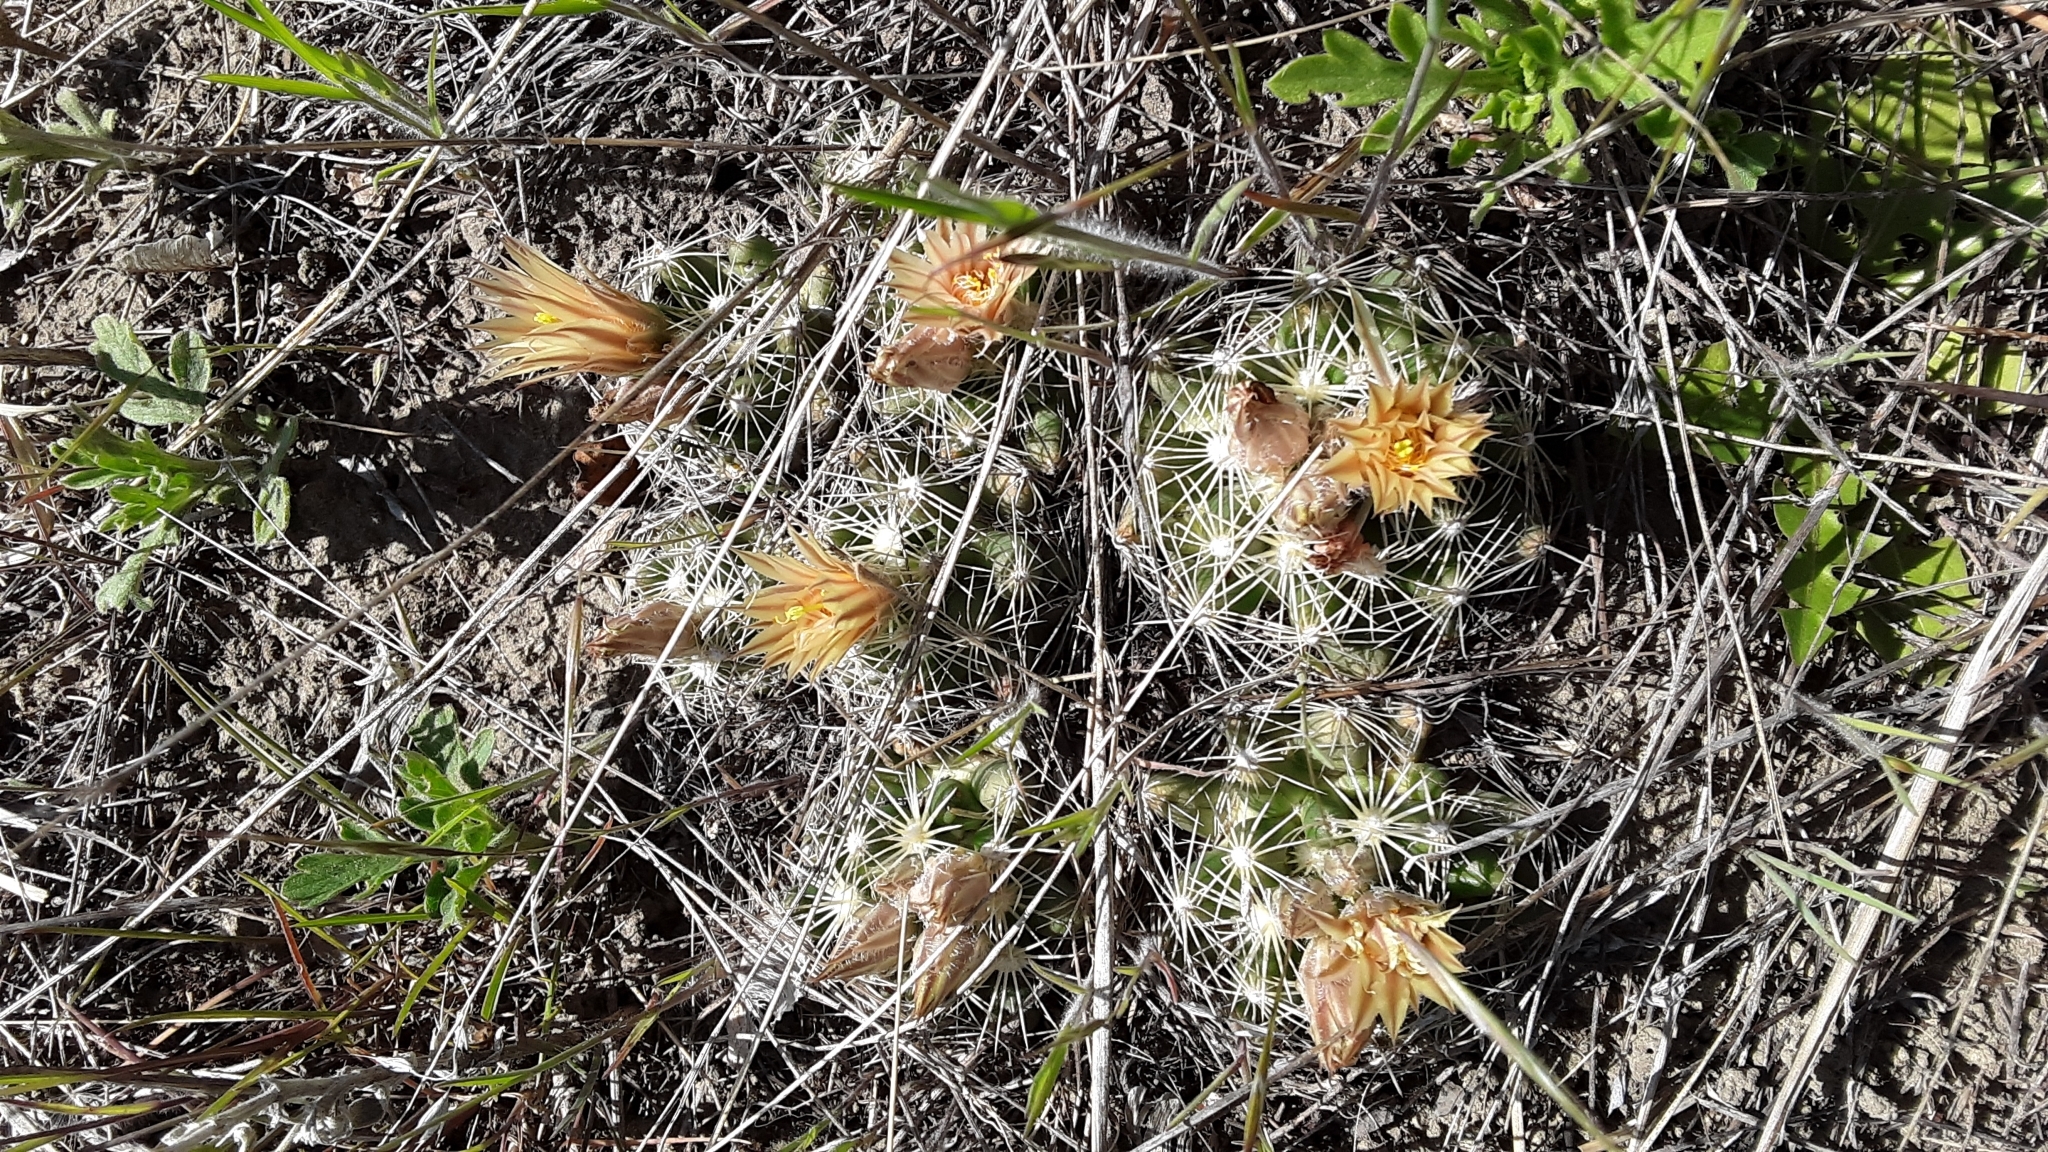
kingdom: Plantae
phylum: Tracheophyta
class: Magnoliopsida
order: Caryophyllales
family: Cactaceae
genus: Pelecyphora
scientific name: Pelecyphora missouriensis
